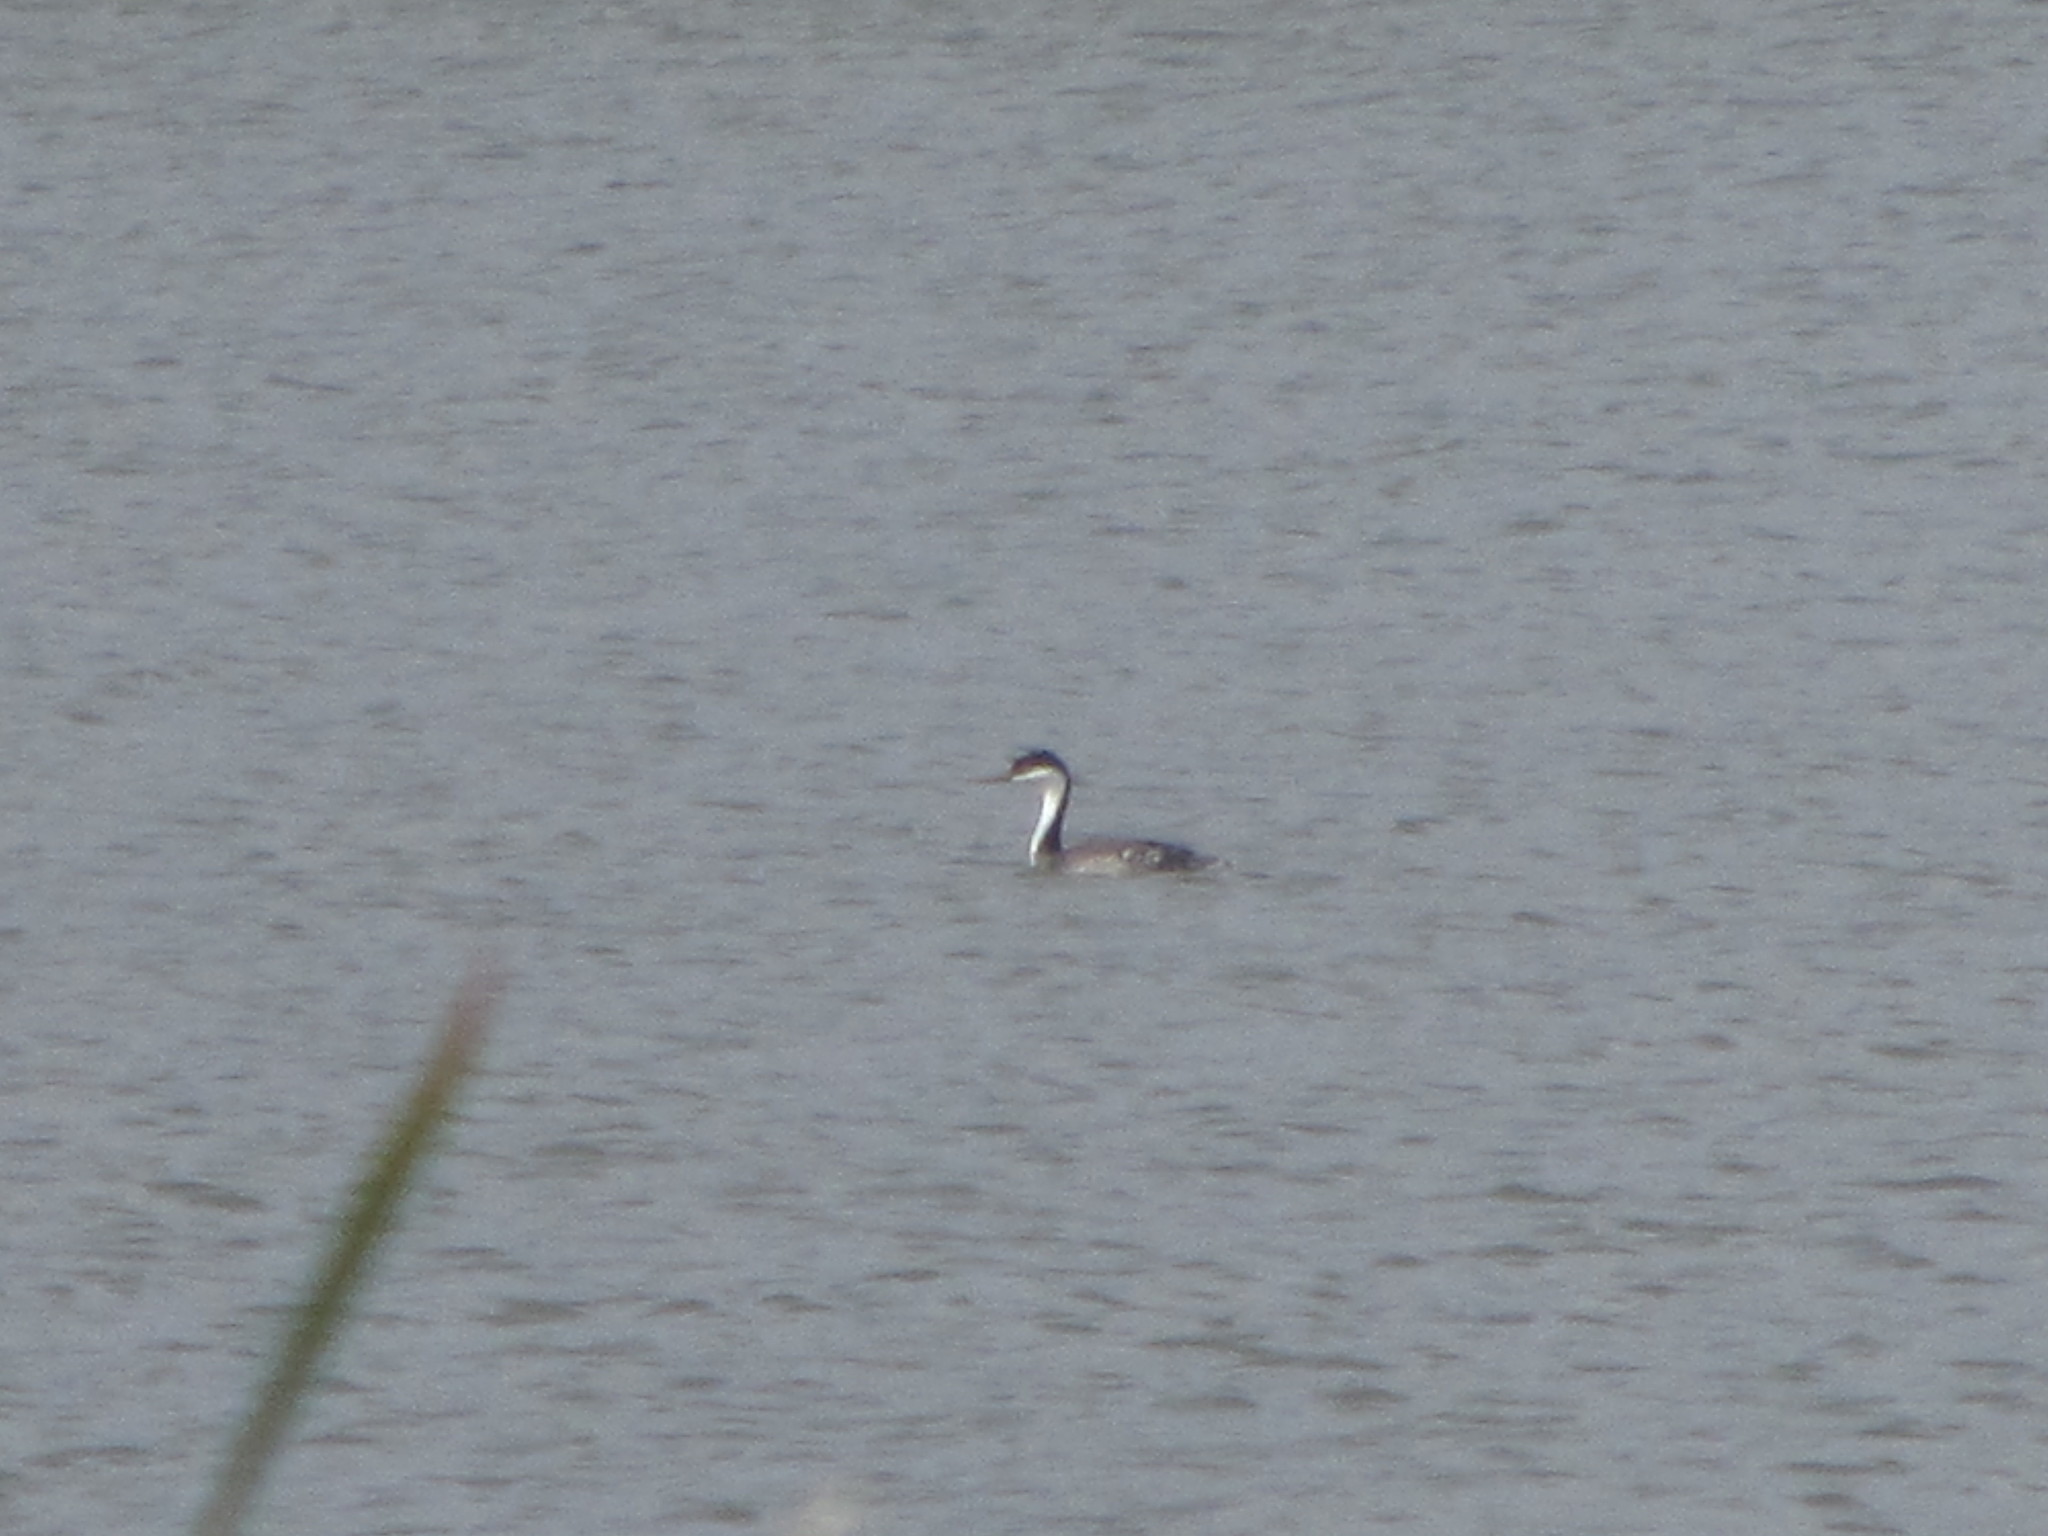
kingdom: Animalia
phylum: Chordata
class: Aves
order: Podicipediformes
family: Podicipedidae
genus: Aechmophorus
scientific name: Aechmophorus occidentalis
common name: Western grebe
